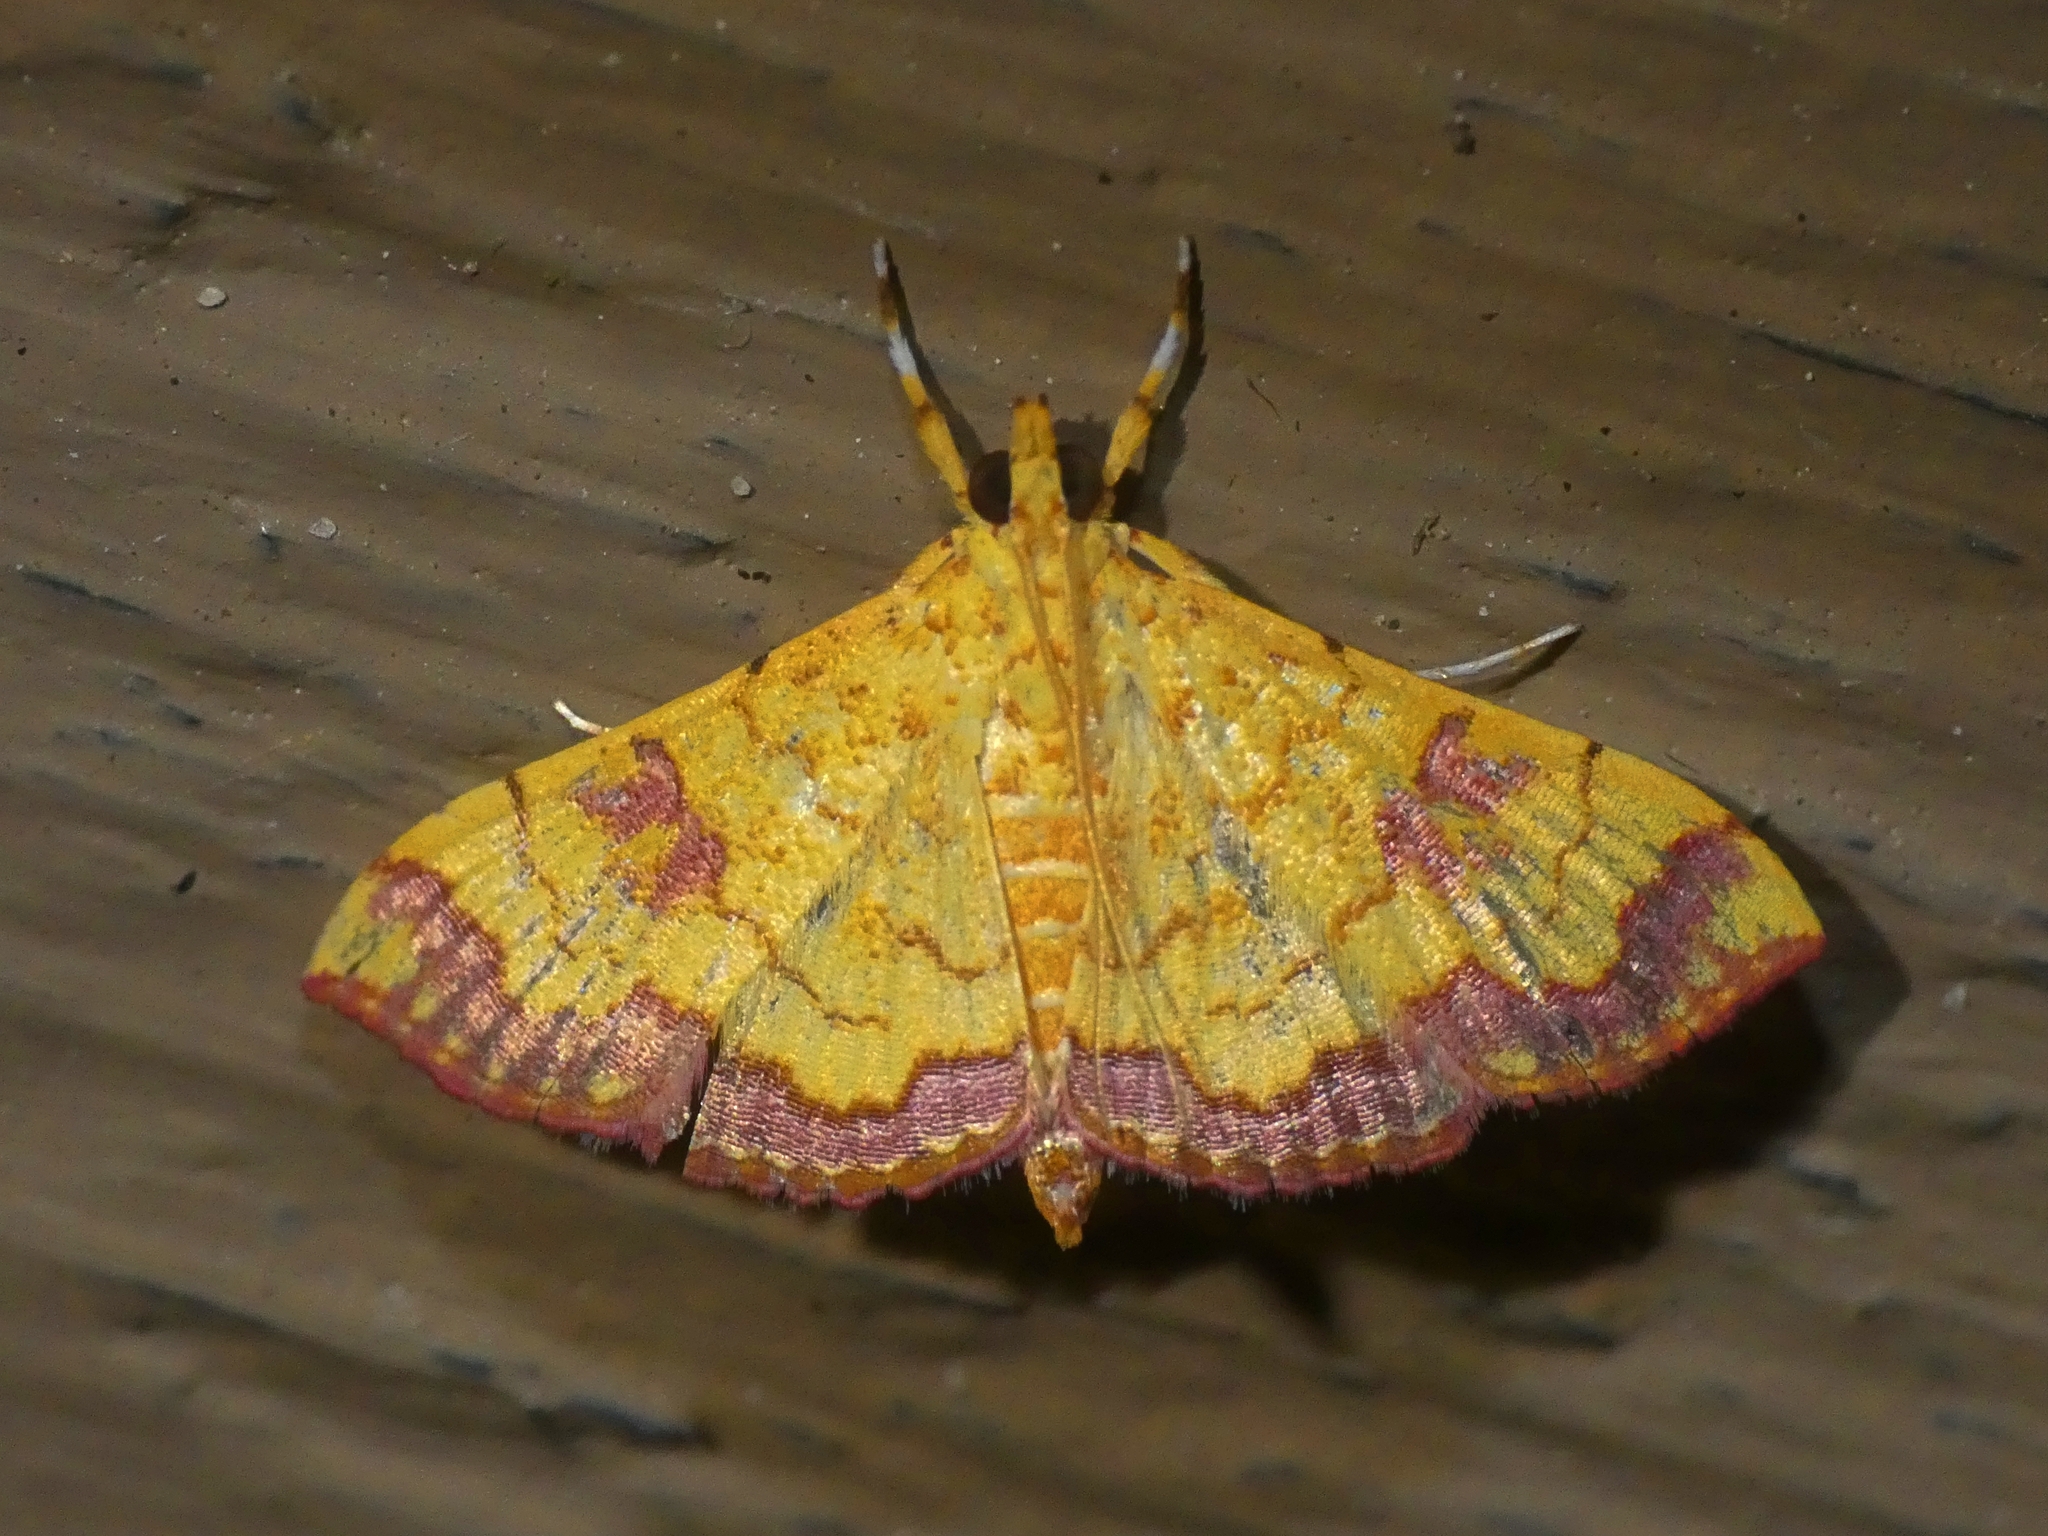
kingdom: Animalia
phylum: Arthropoda
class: Insecta
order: Lepidoptera
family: Crambidae
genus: Isocentris
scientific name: Isocentris filalis
